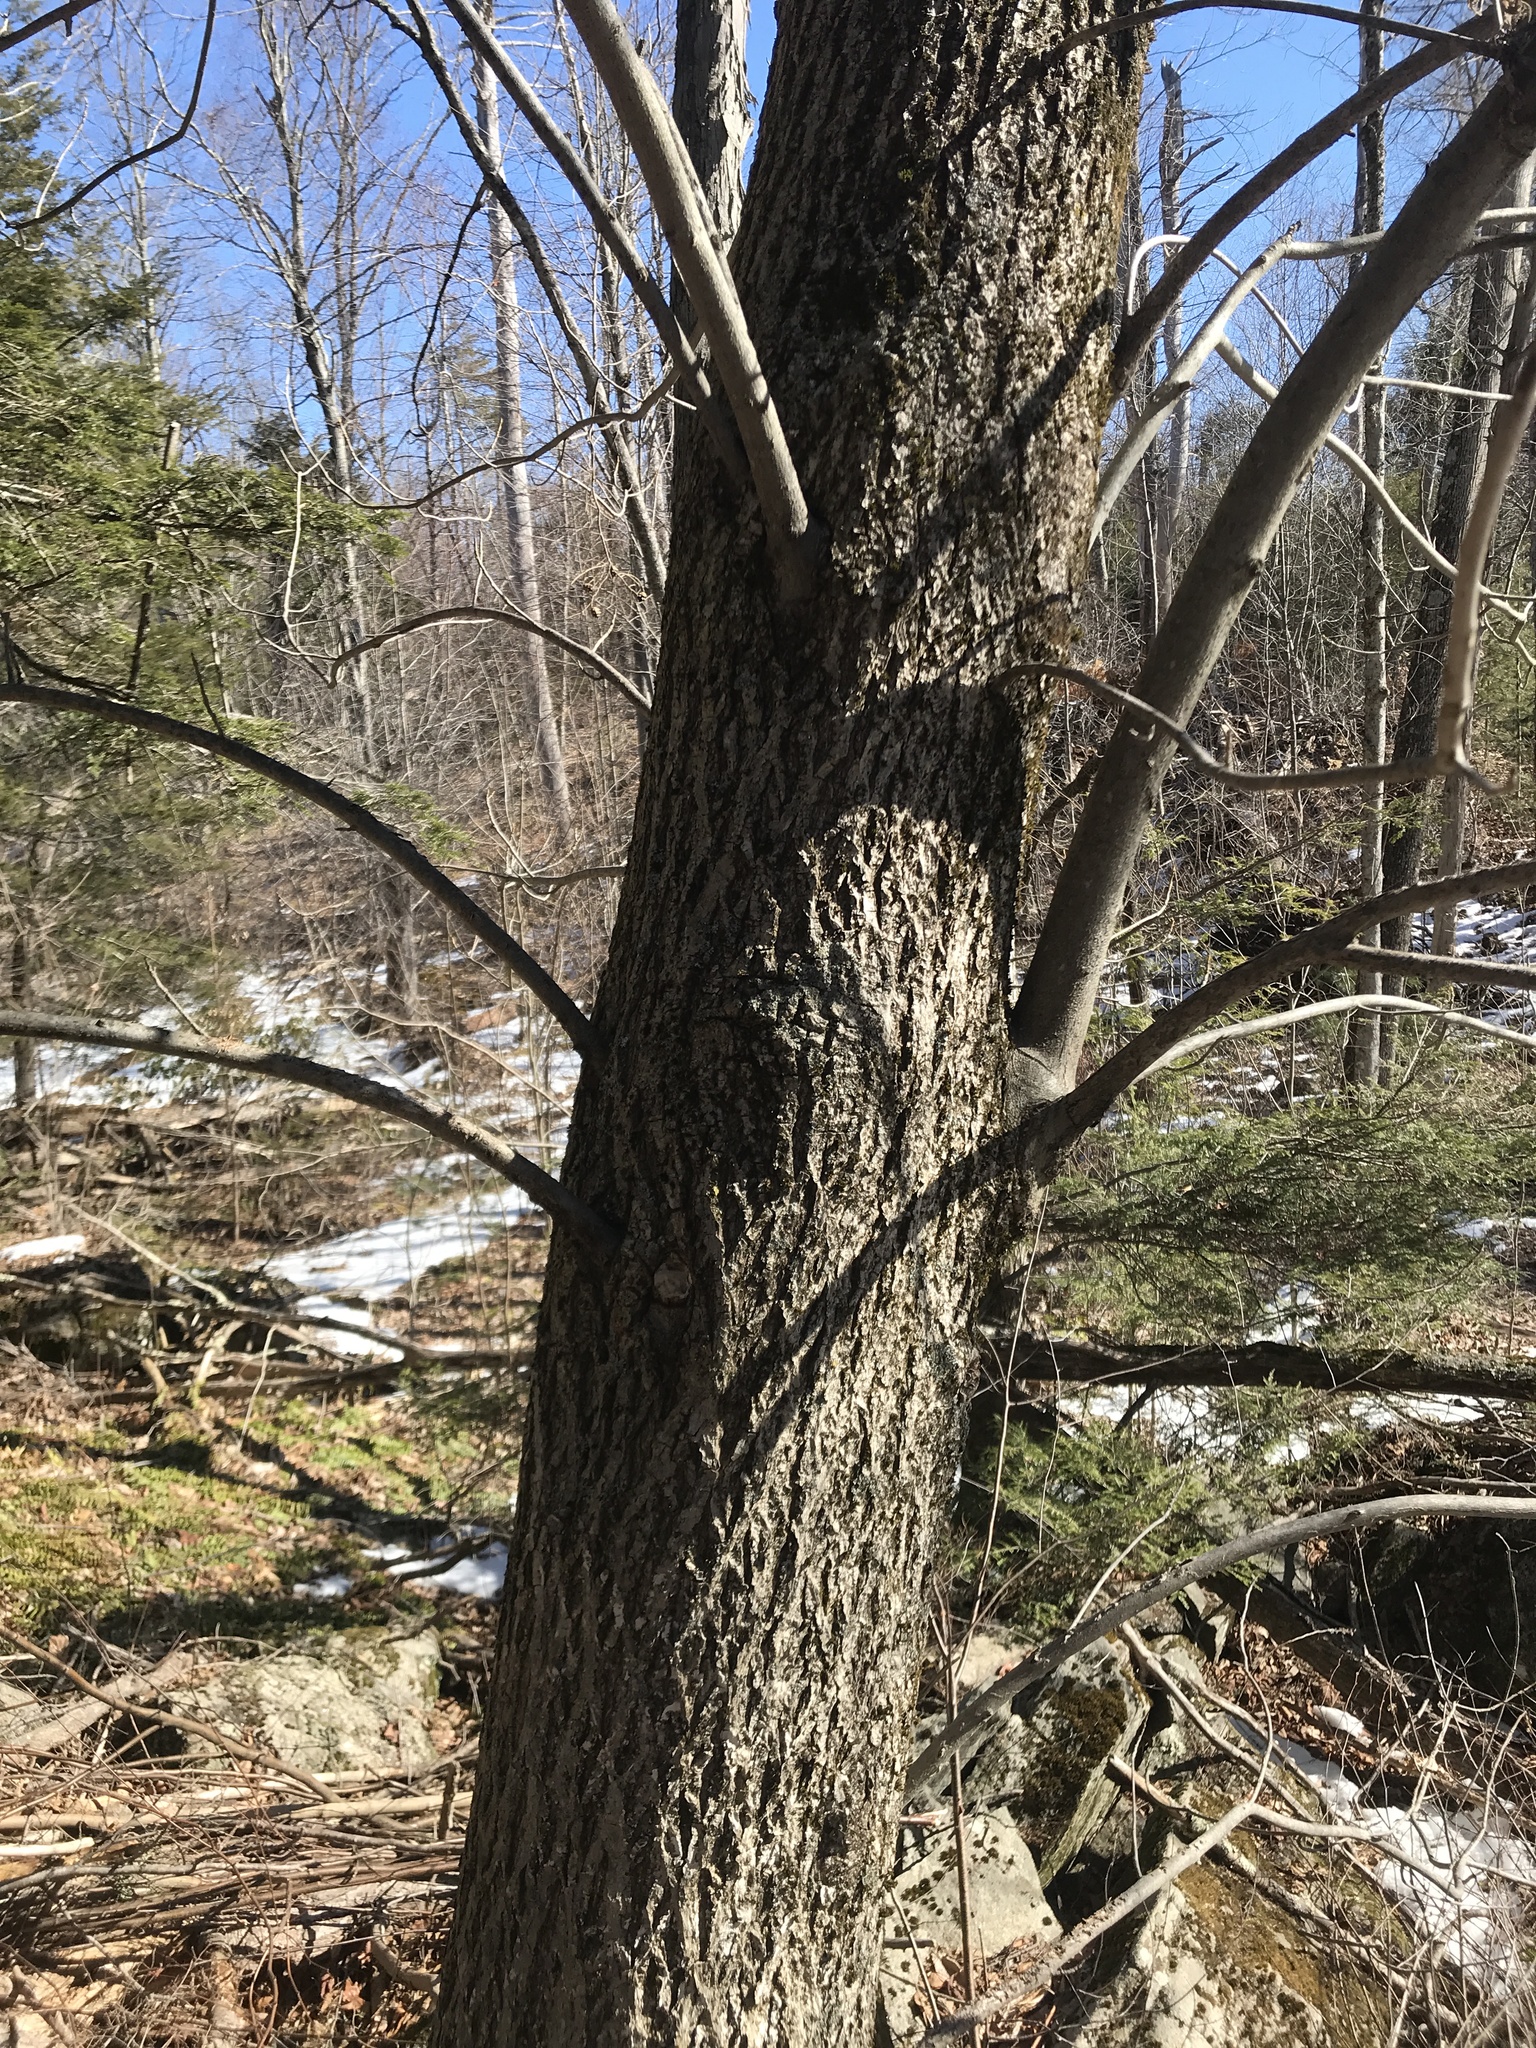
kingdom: Plantae
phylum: Tracheophyta
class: Magnoliopsida
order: Fagales
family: Juglandaceae
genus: Carya
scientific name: Carya cordiformis
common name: Bitternut hickory
